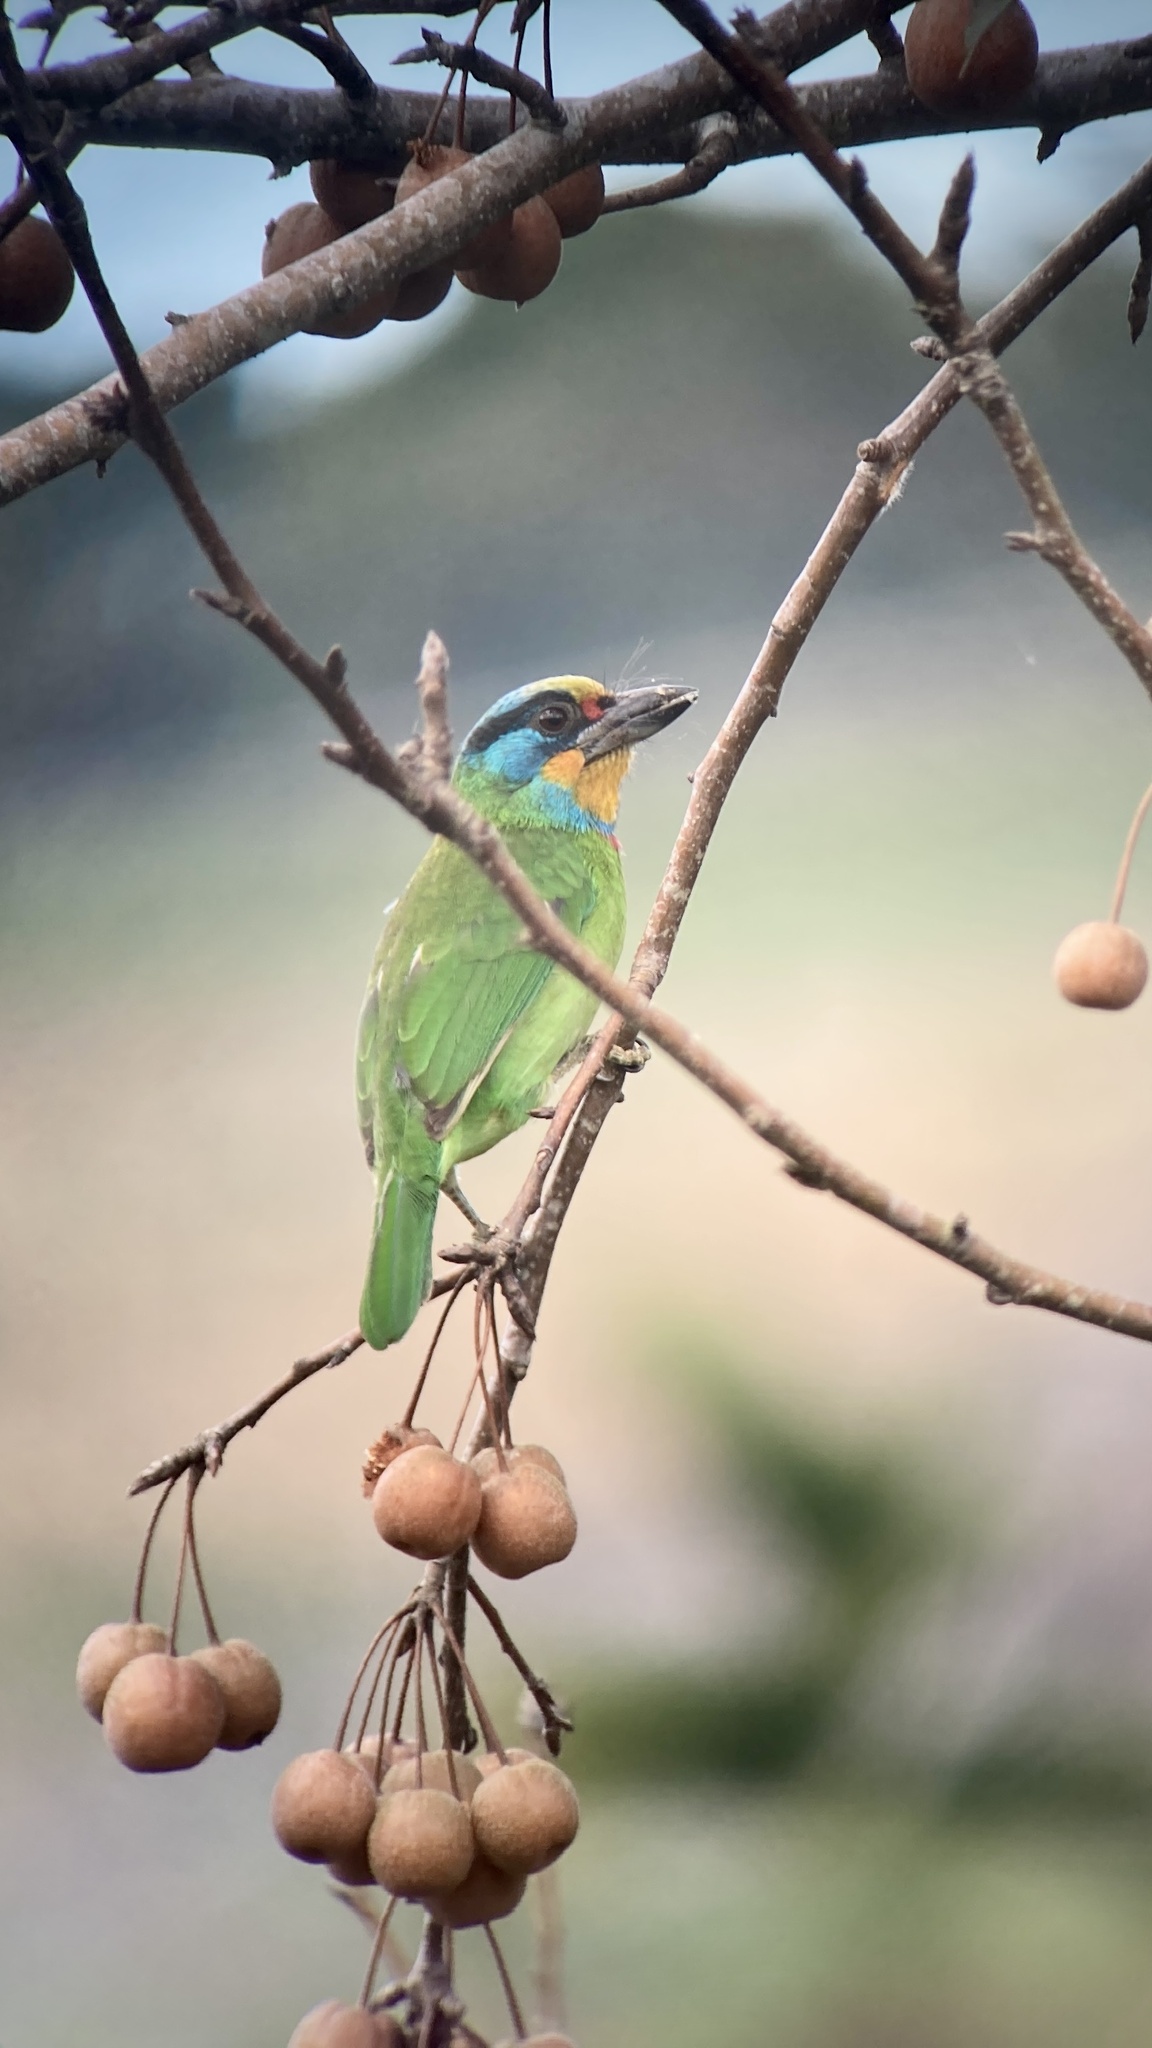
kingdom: Animalia
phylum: Chordata
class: Aves
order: Piciformes
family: Megalaimidae
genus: Psilopogon
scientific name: Psilopogon nuchalis
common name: Taiwan barbet
